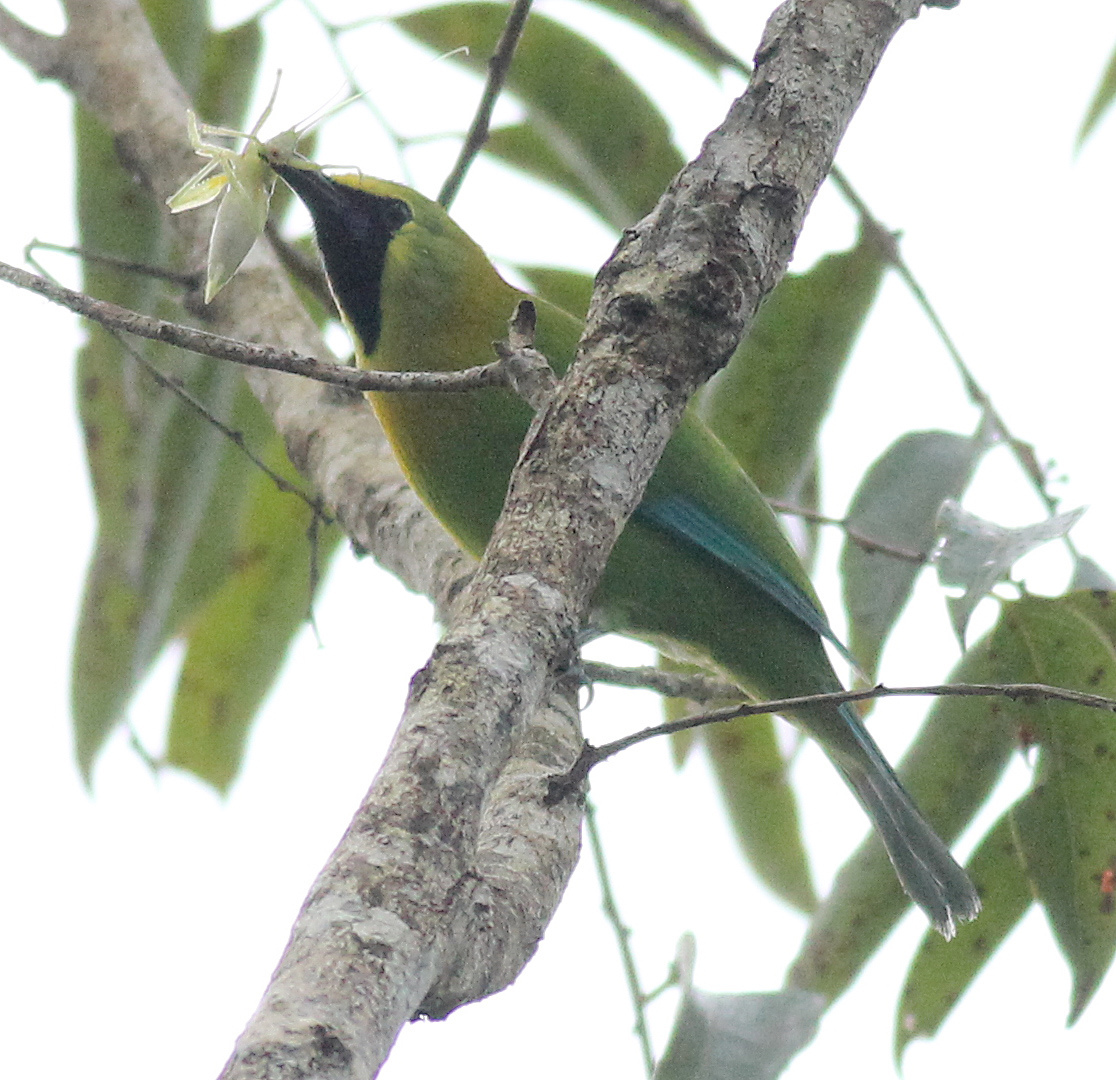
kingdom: Animalia
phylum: Chordata
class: Aves
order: Passeriformes
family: Chloropseidae
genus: Chloropsis
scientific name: Chloropsis moluccensis
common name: Blue-winged leafbird
